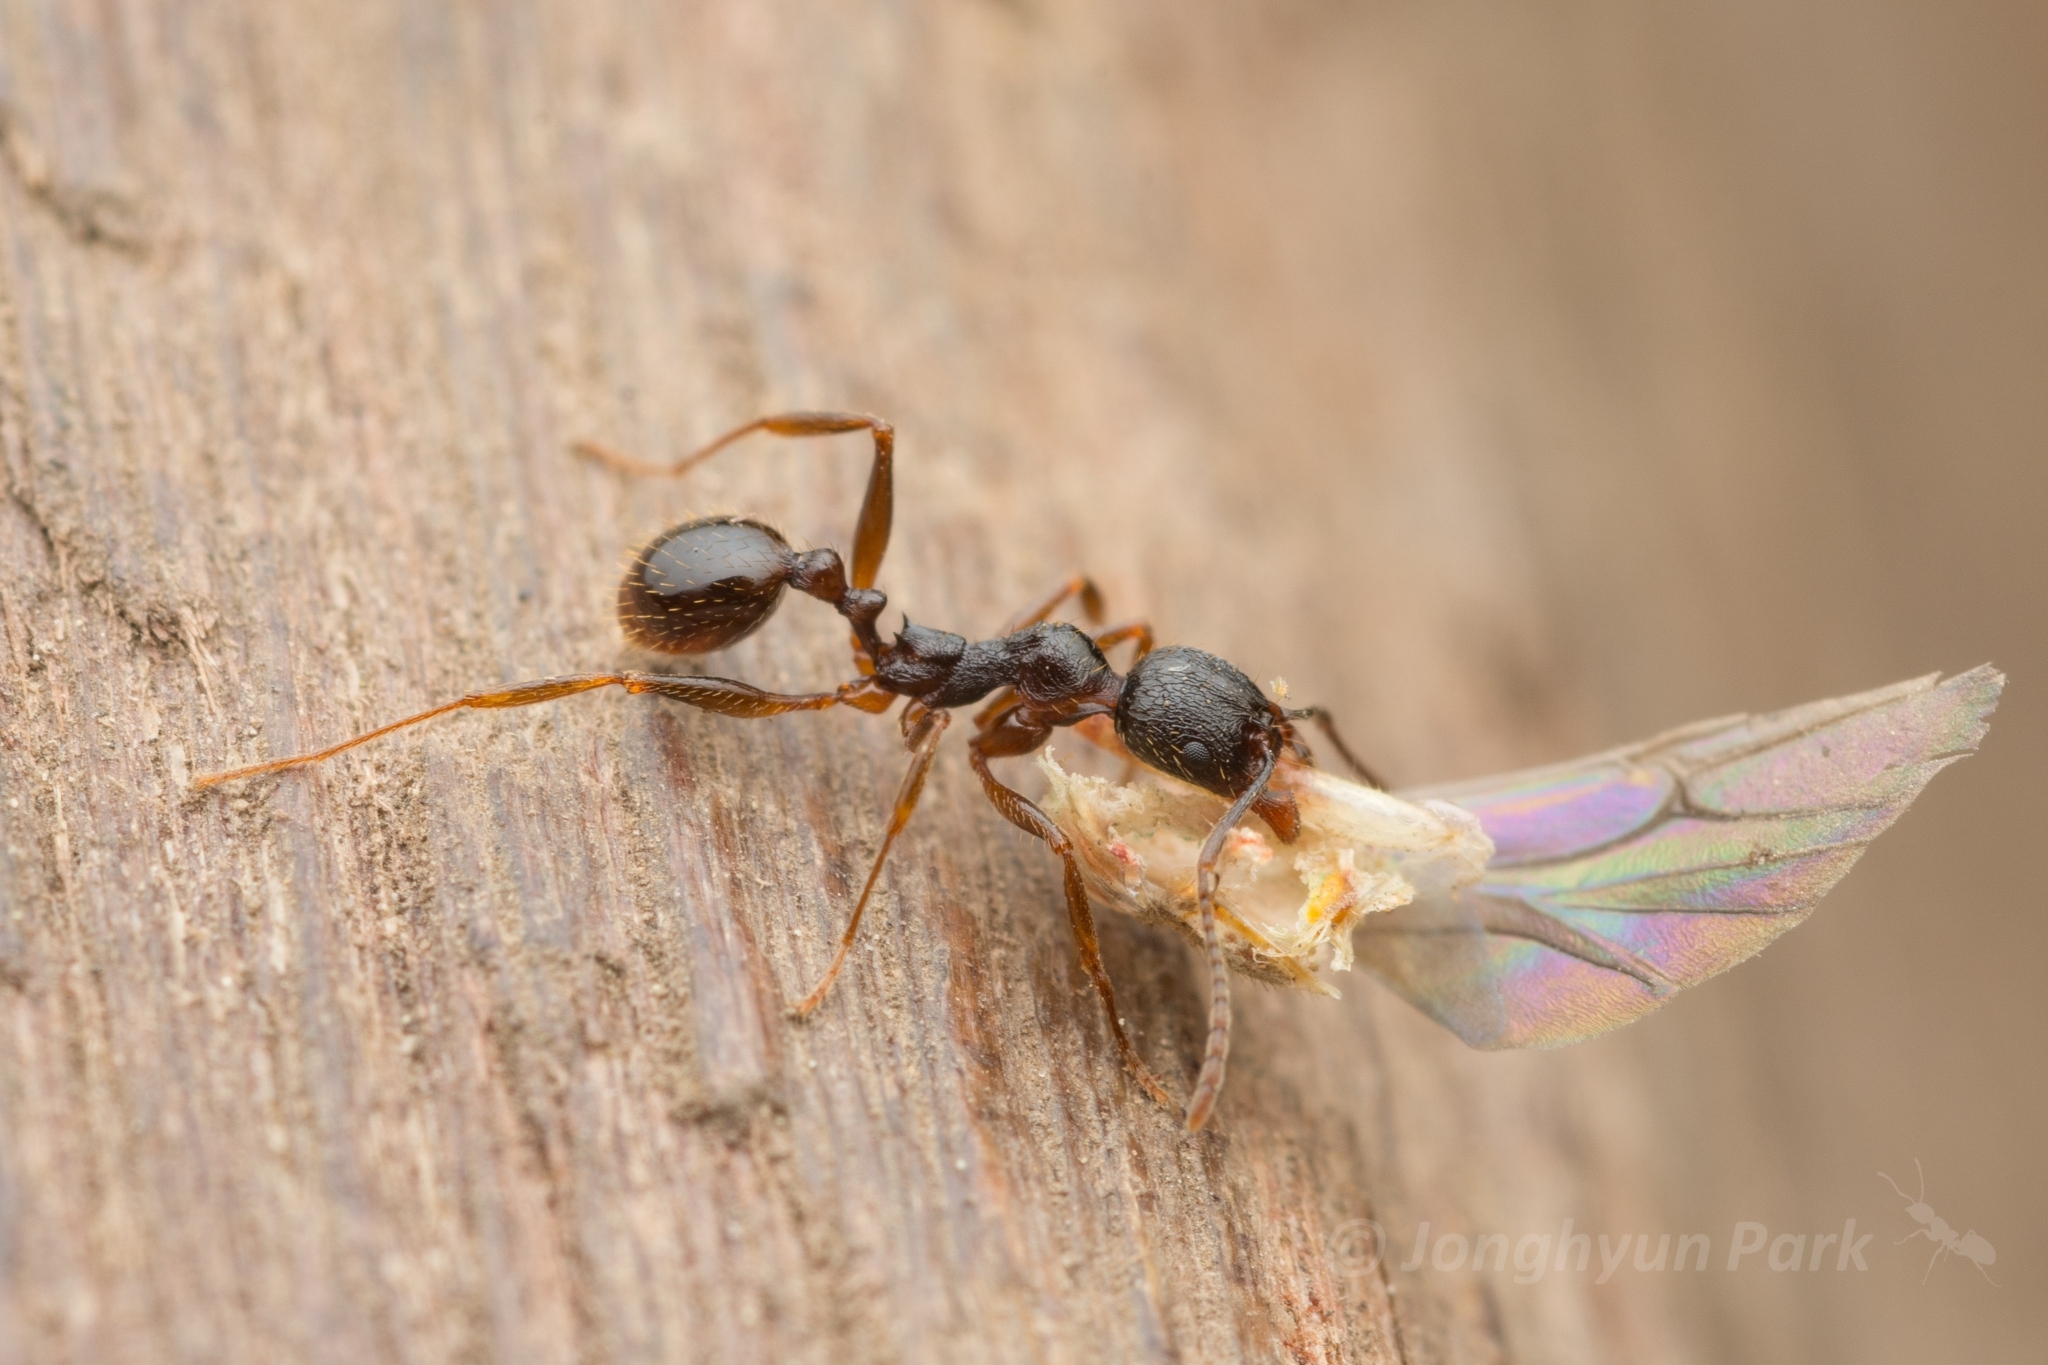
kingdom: Animalia
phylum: Arthropoda
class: Insecta
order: Hymenoptera
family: Formicidae
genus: Aphaenogaster
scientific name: Aphaenogaster japonica
